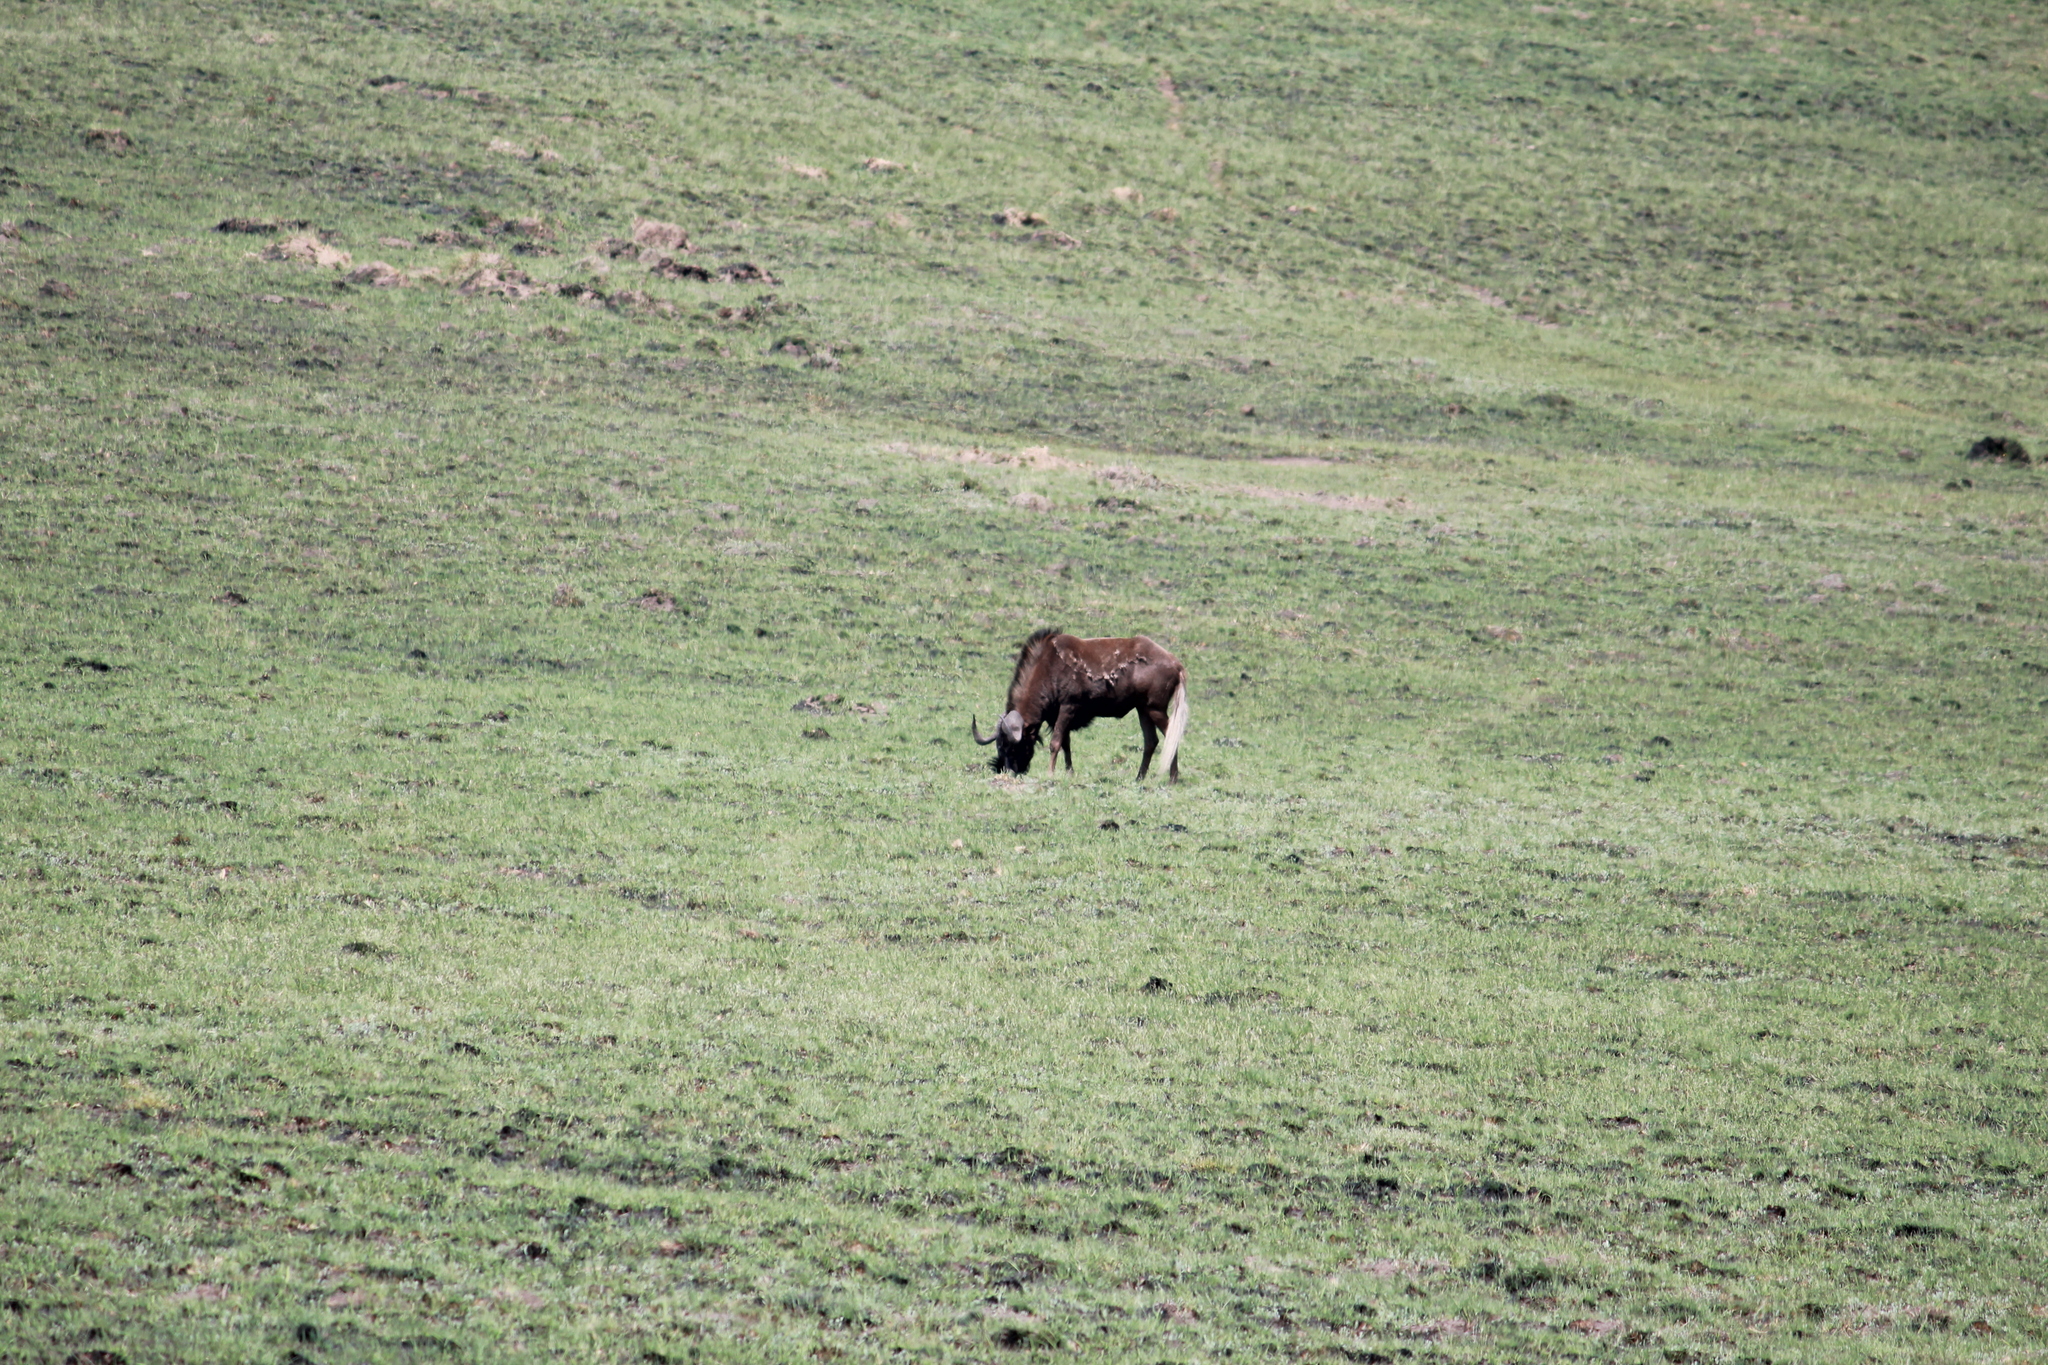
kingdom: Animalia
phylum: Chordata
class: Mammalia
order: Artiodactyla
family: Bovidae
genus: Connochaetes
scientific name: Connochaetes gnou
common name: Black wildebeest
